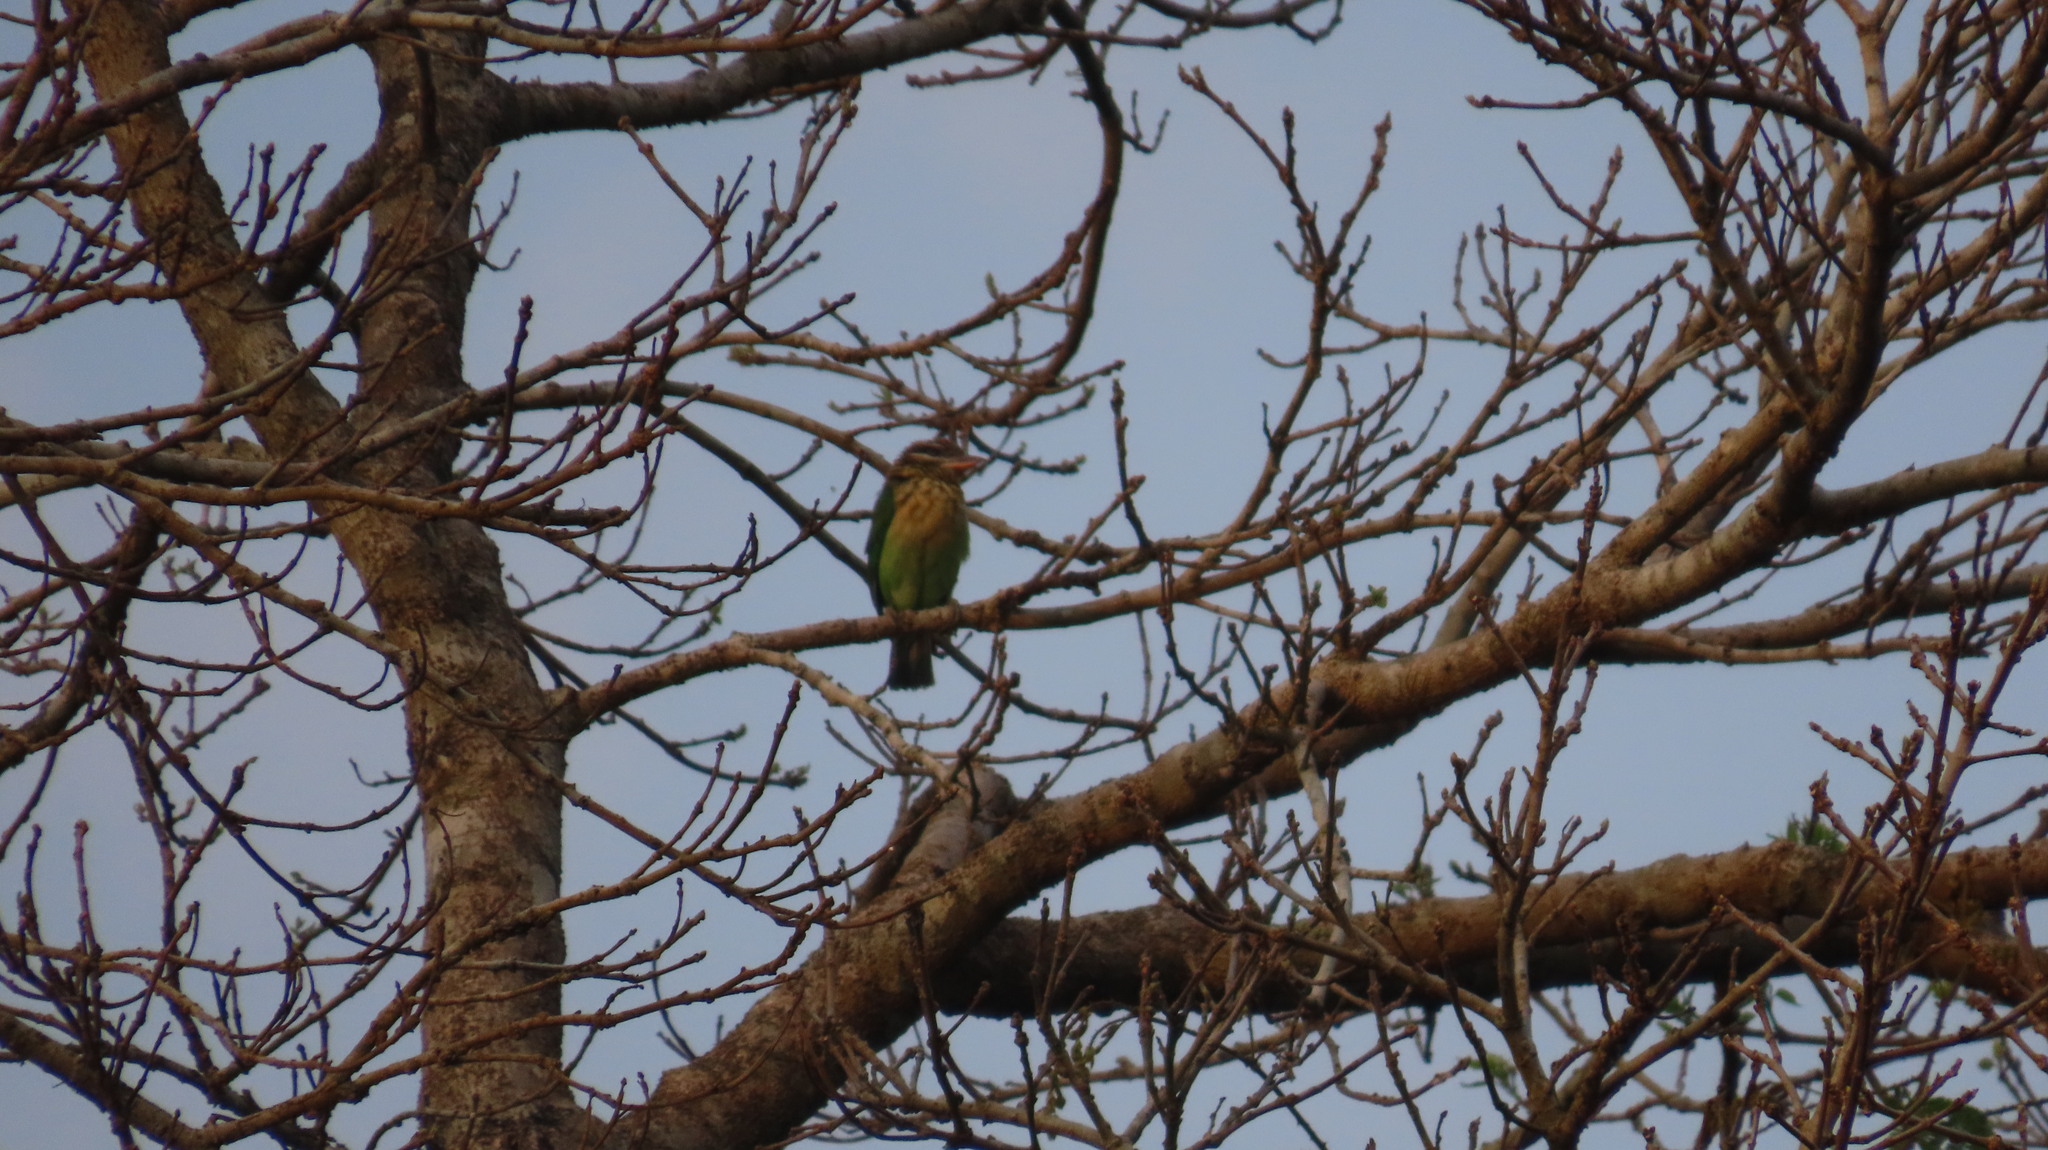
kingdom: Animalia
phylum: Chordata
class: Aves
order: Piciformes
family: Megalaimidae
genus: Psilopogon
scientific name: Psilopogon viridis
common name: White-cheeked barbet
